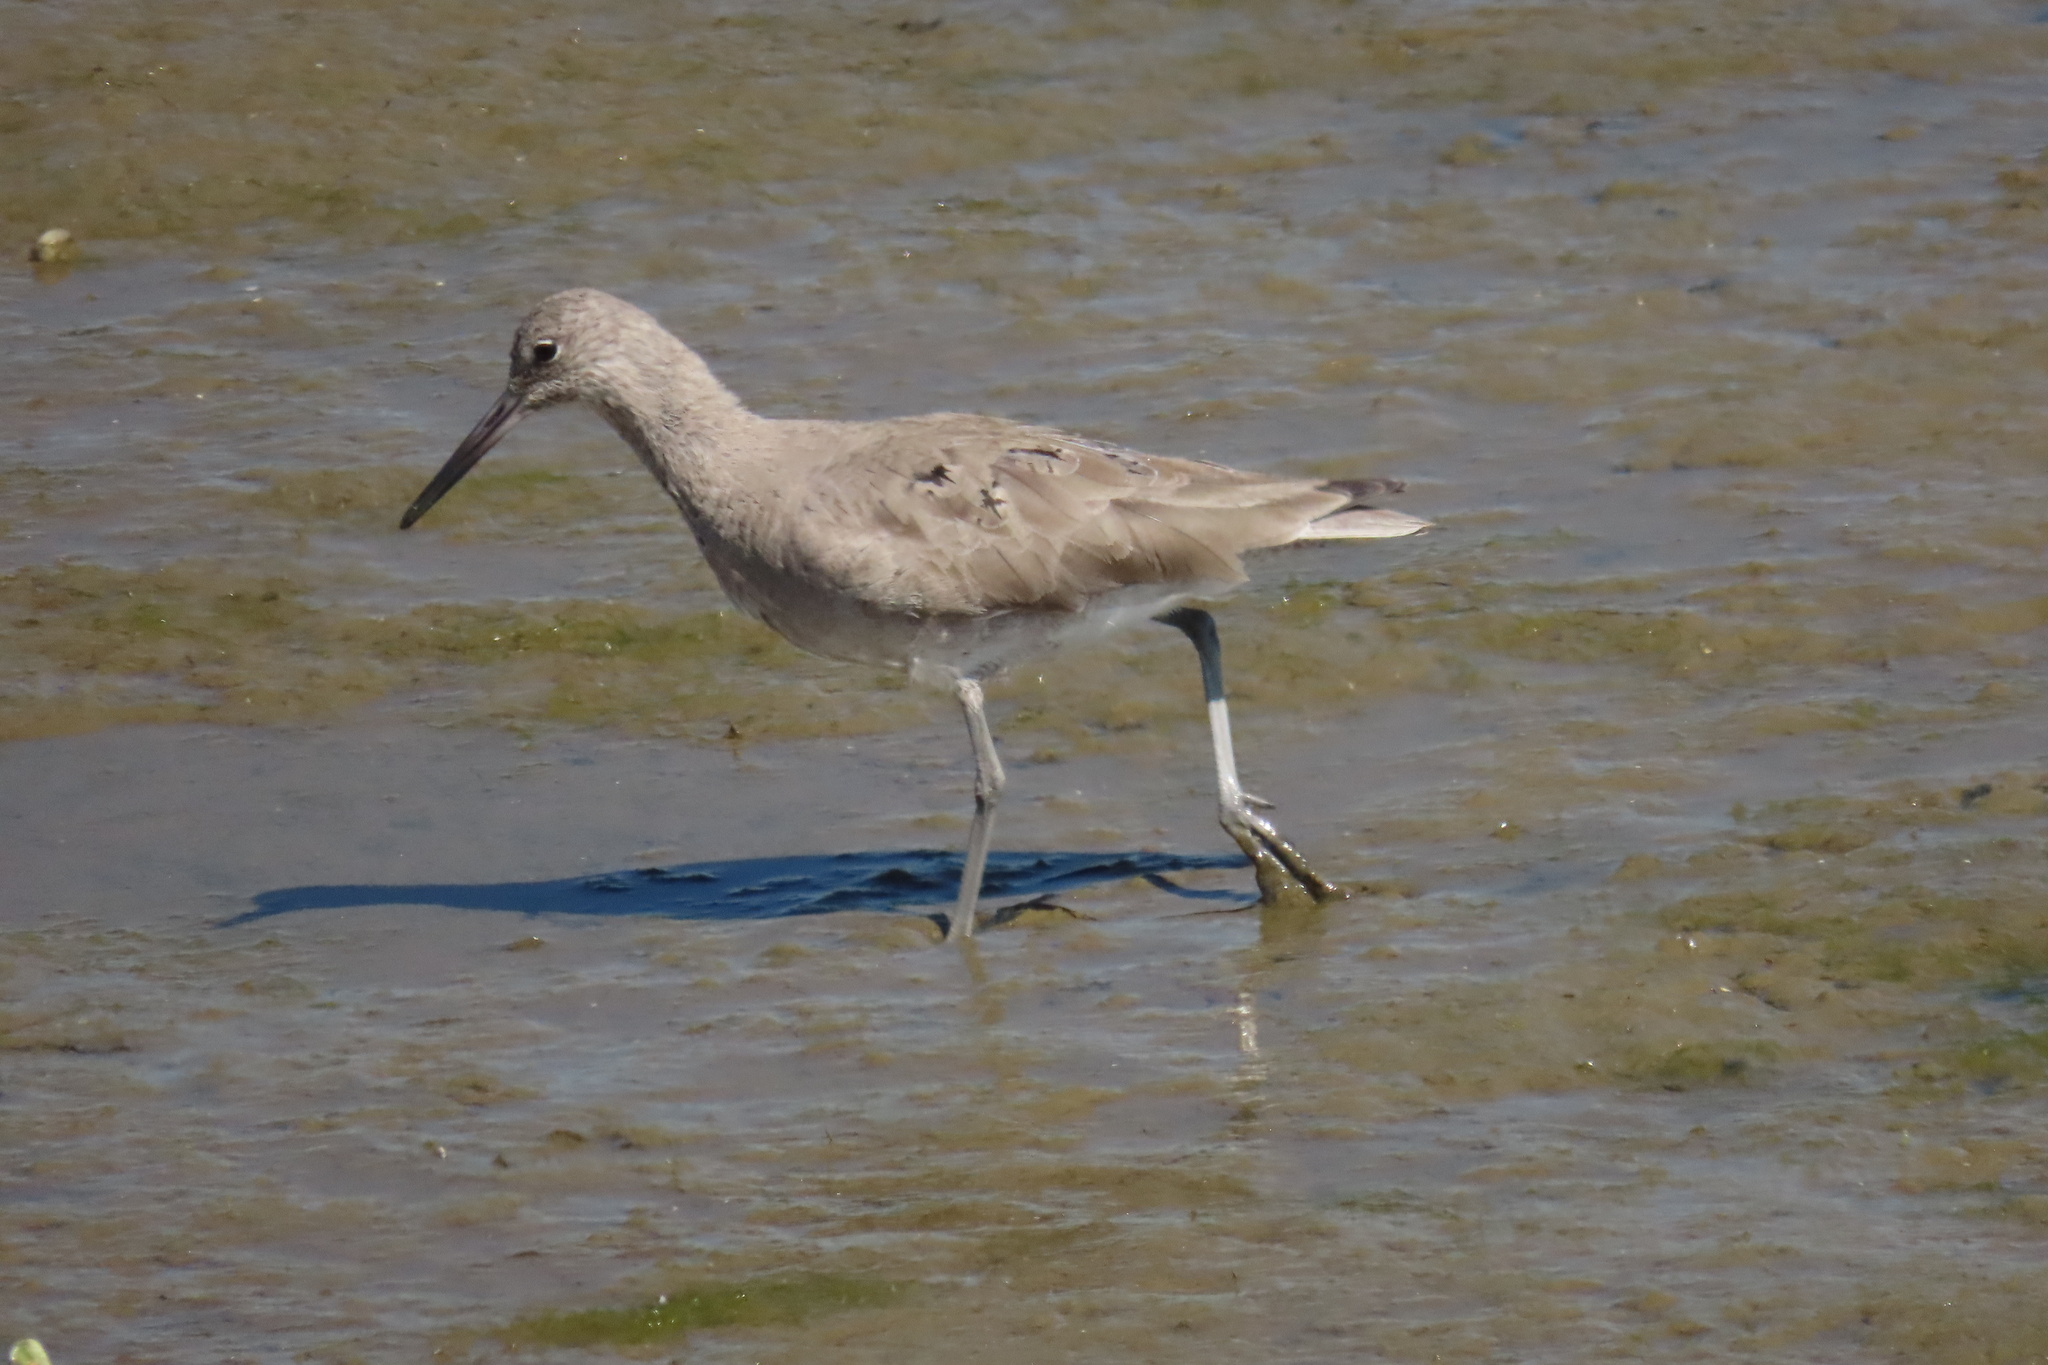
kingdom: Animalia
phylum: Chordata
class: Aves
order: Charadriiformes
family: Scolopacidae
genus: Tringa
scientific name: Tringa semipalmata
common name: Willet
